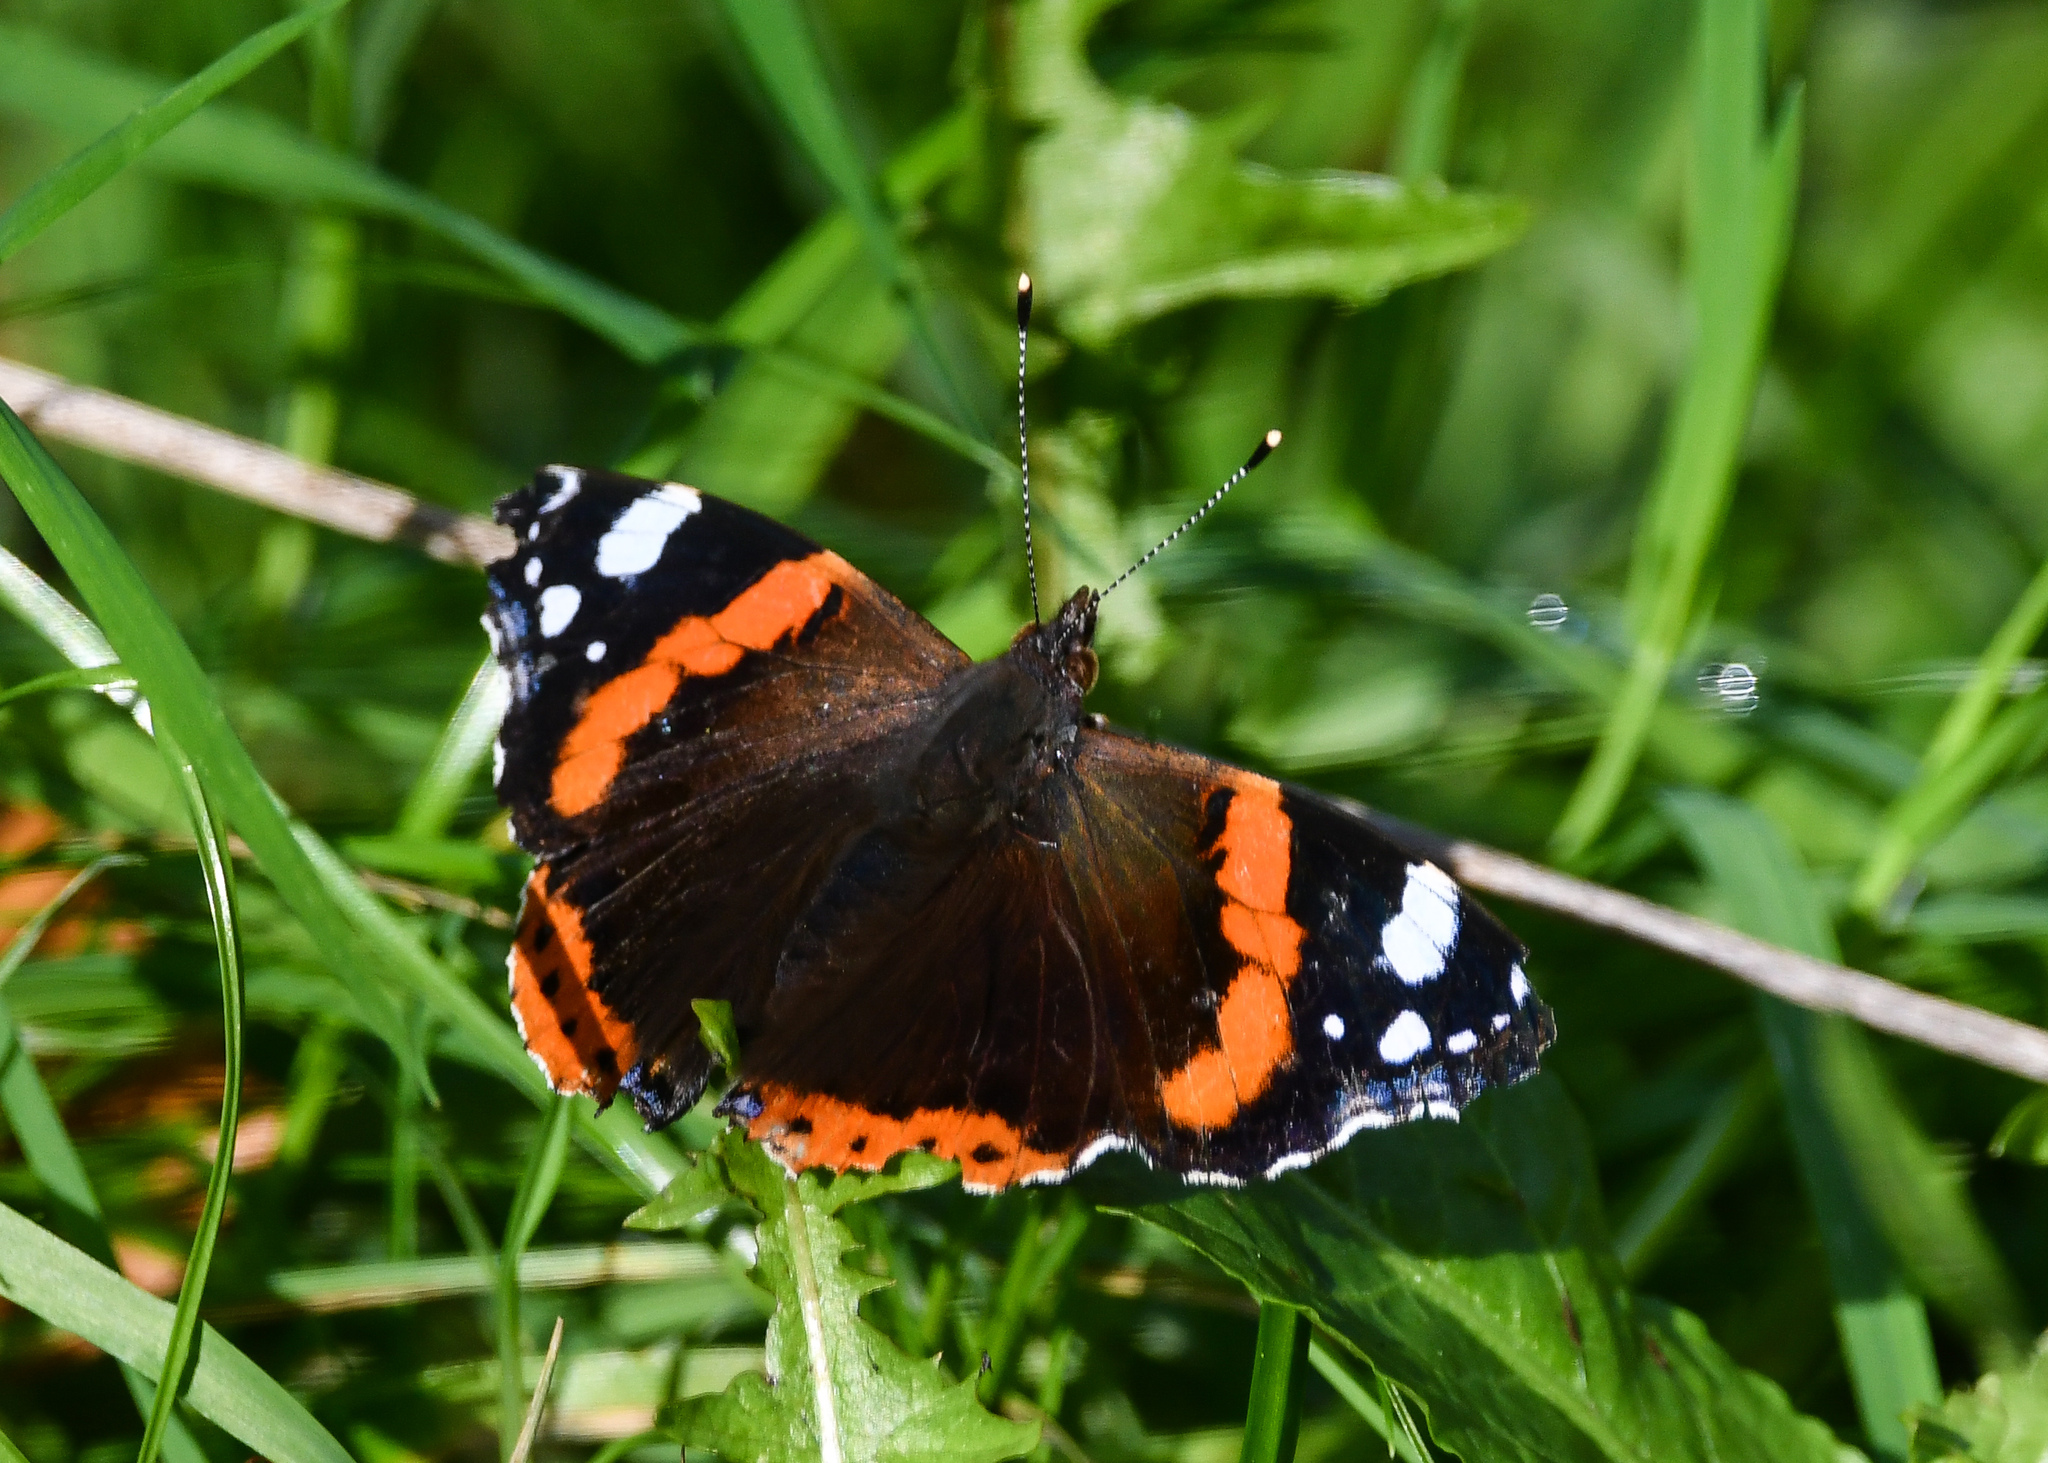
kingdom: Animalia
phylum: Arthropoda
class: Insecta
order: Lepidoptera
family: Nymphalidae
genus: Vanessa
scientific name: Vanessa atalanta
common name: Red admiral
